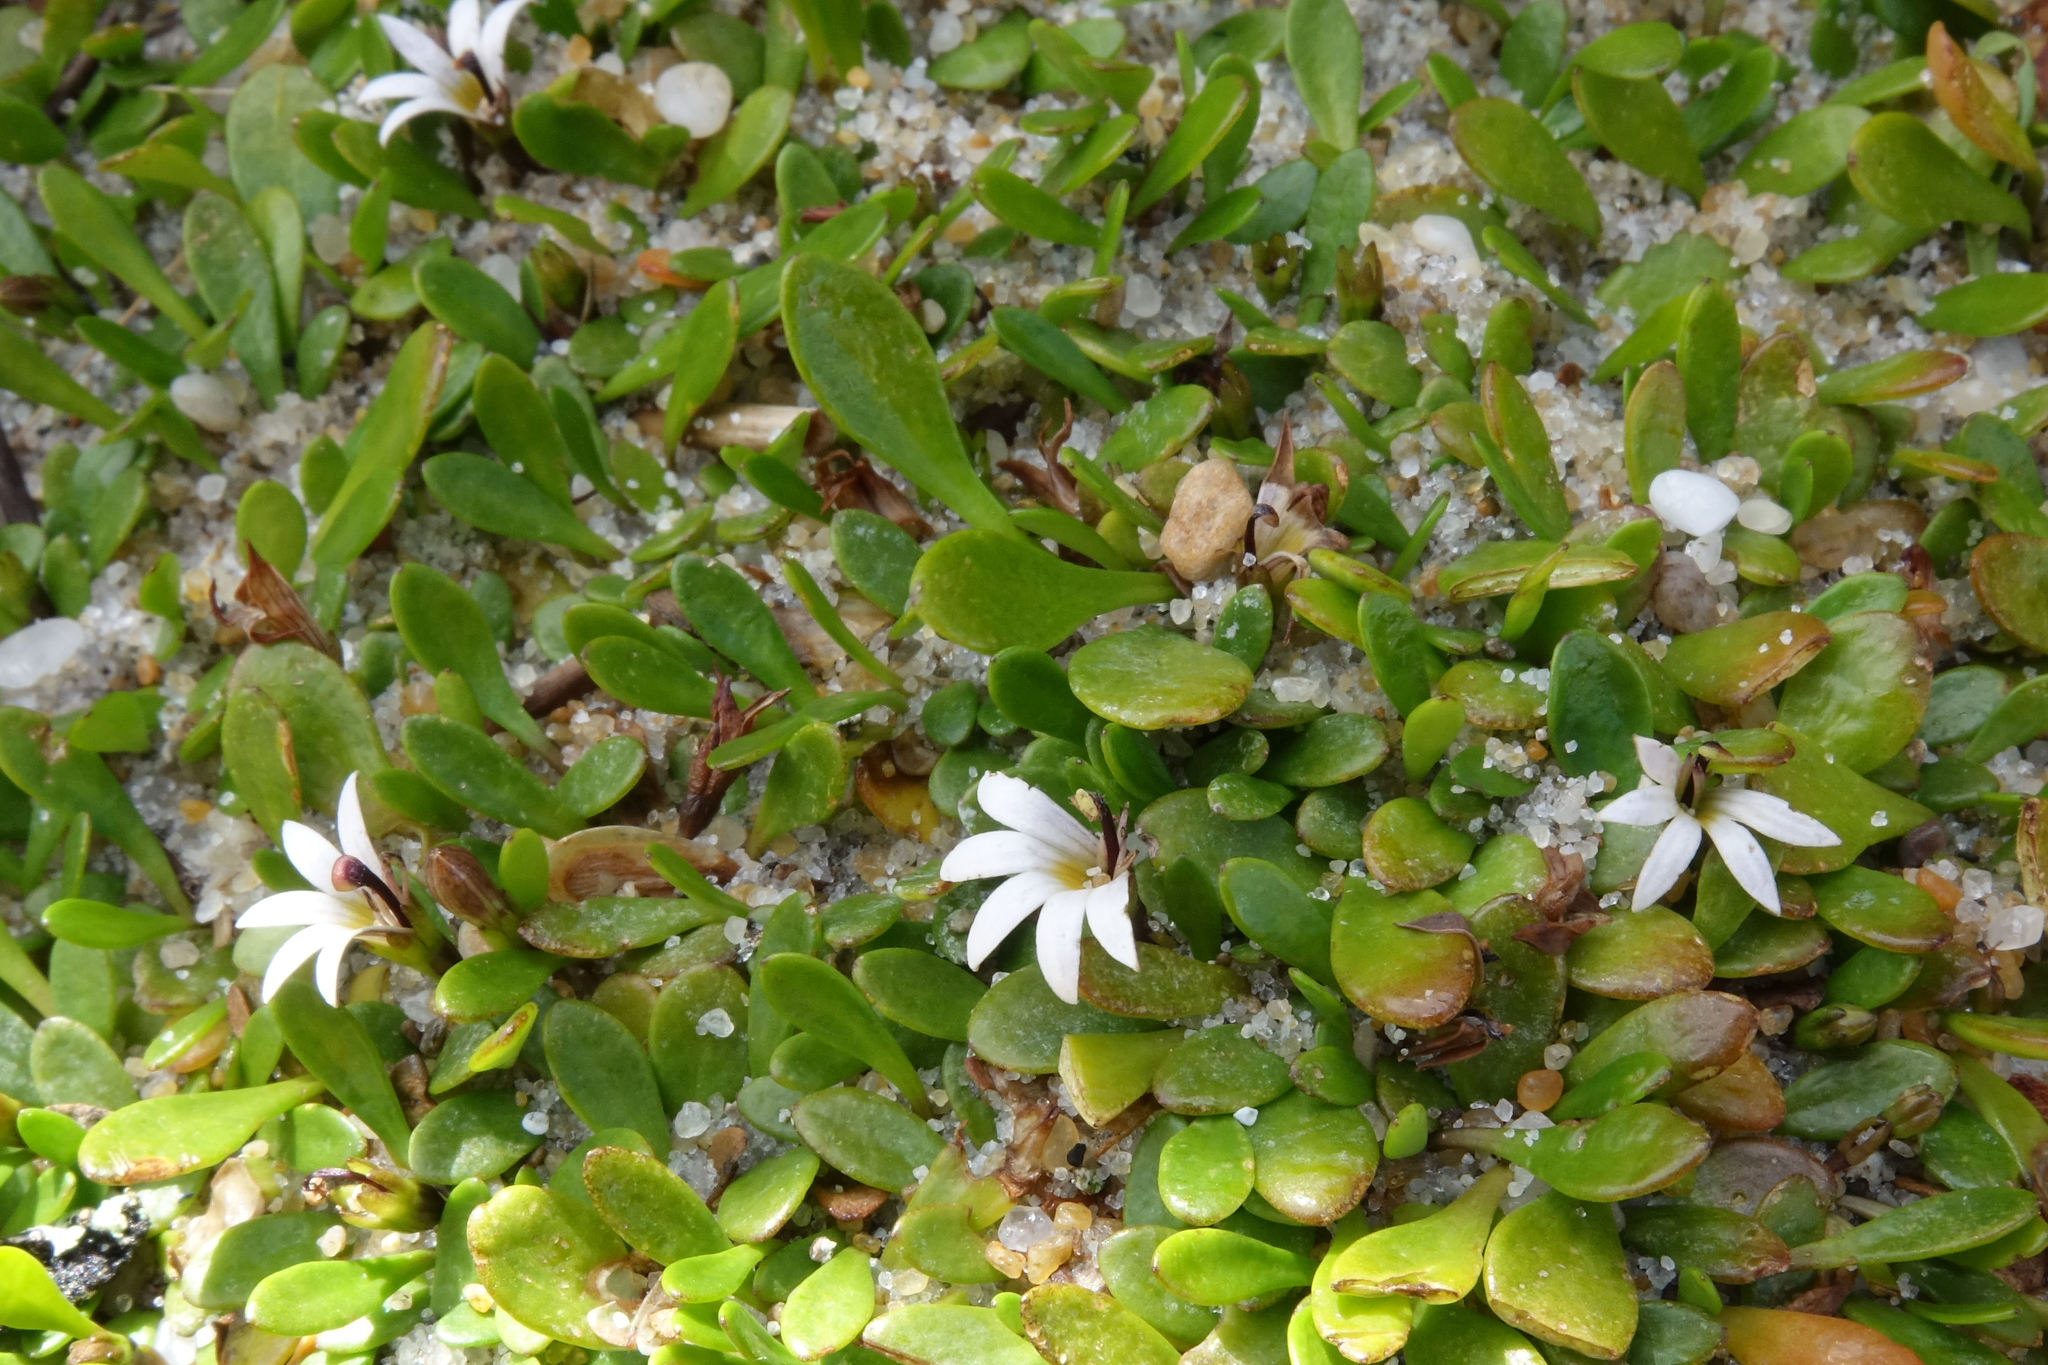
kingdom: Plantae
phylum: Tracheophyta
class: Magnoliopsida
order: Asterales
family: Goodeniaceae
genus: Goodenia
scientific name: Goodenia radicans
